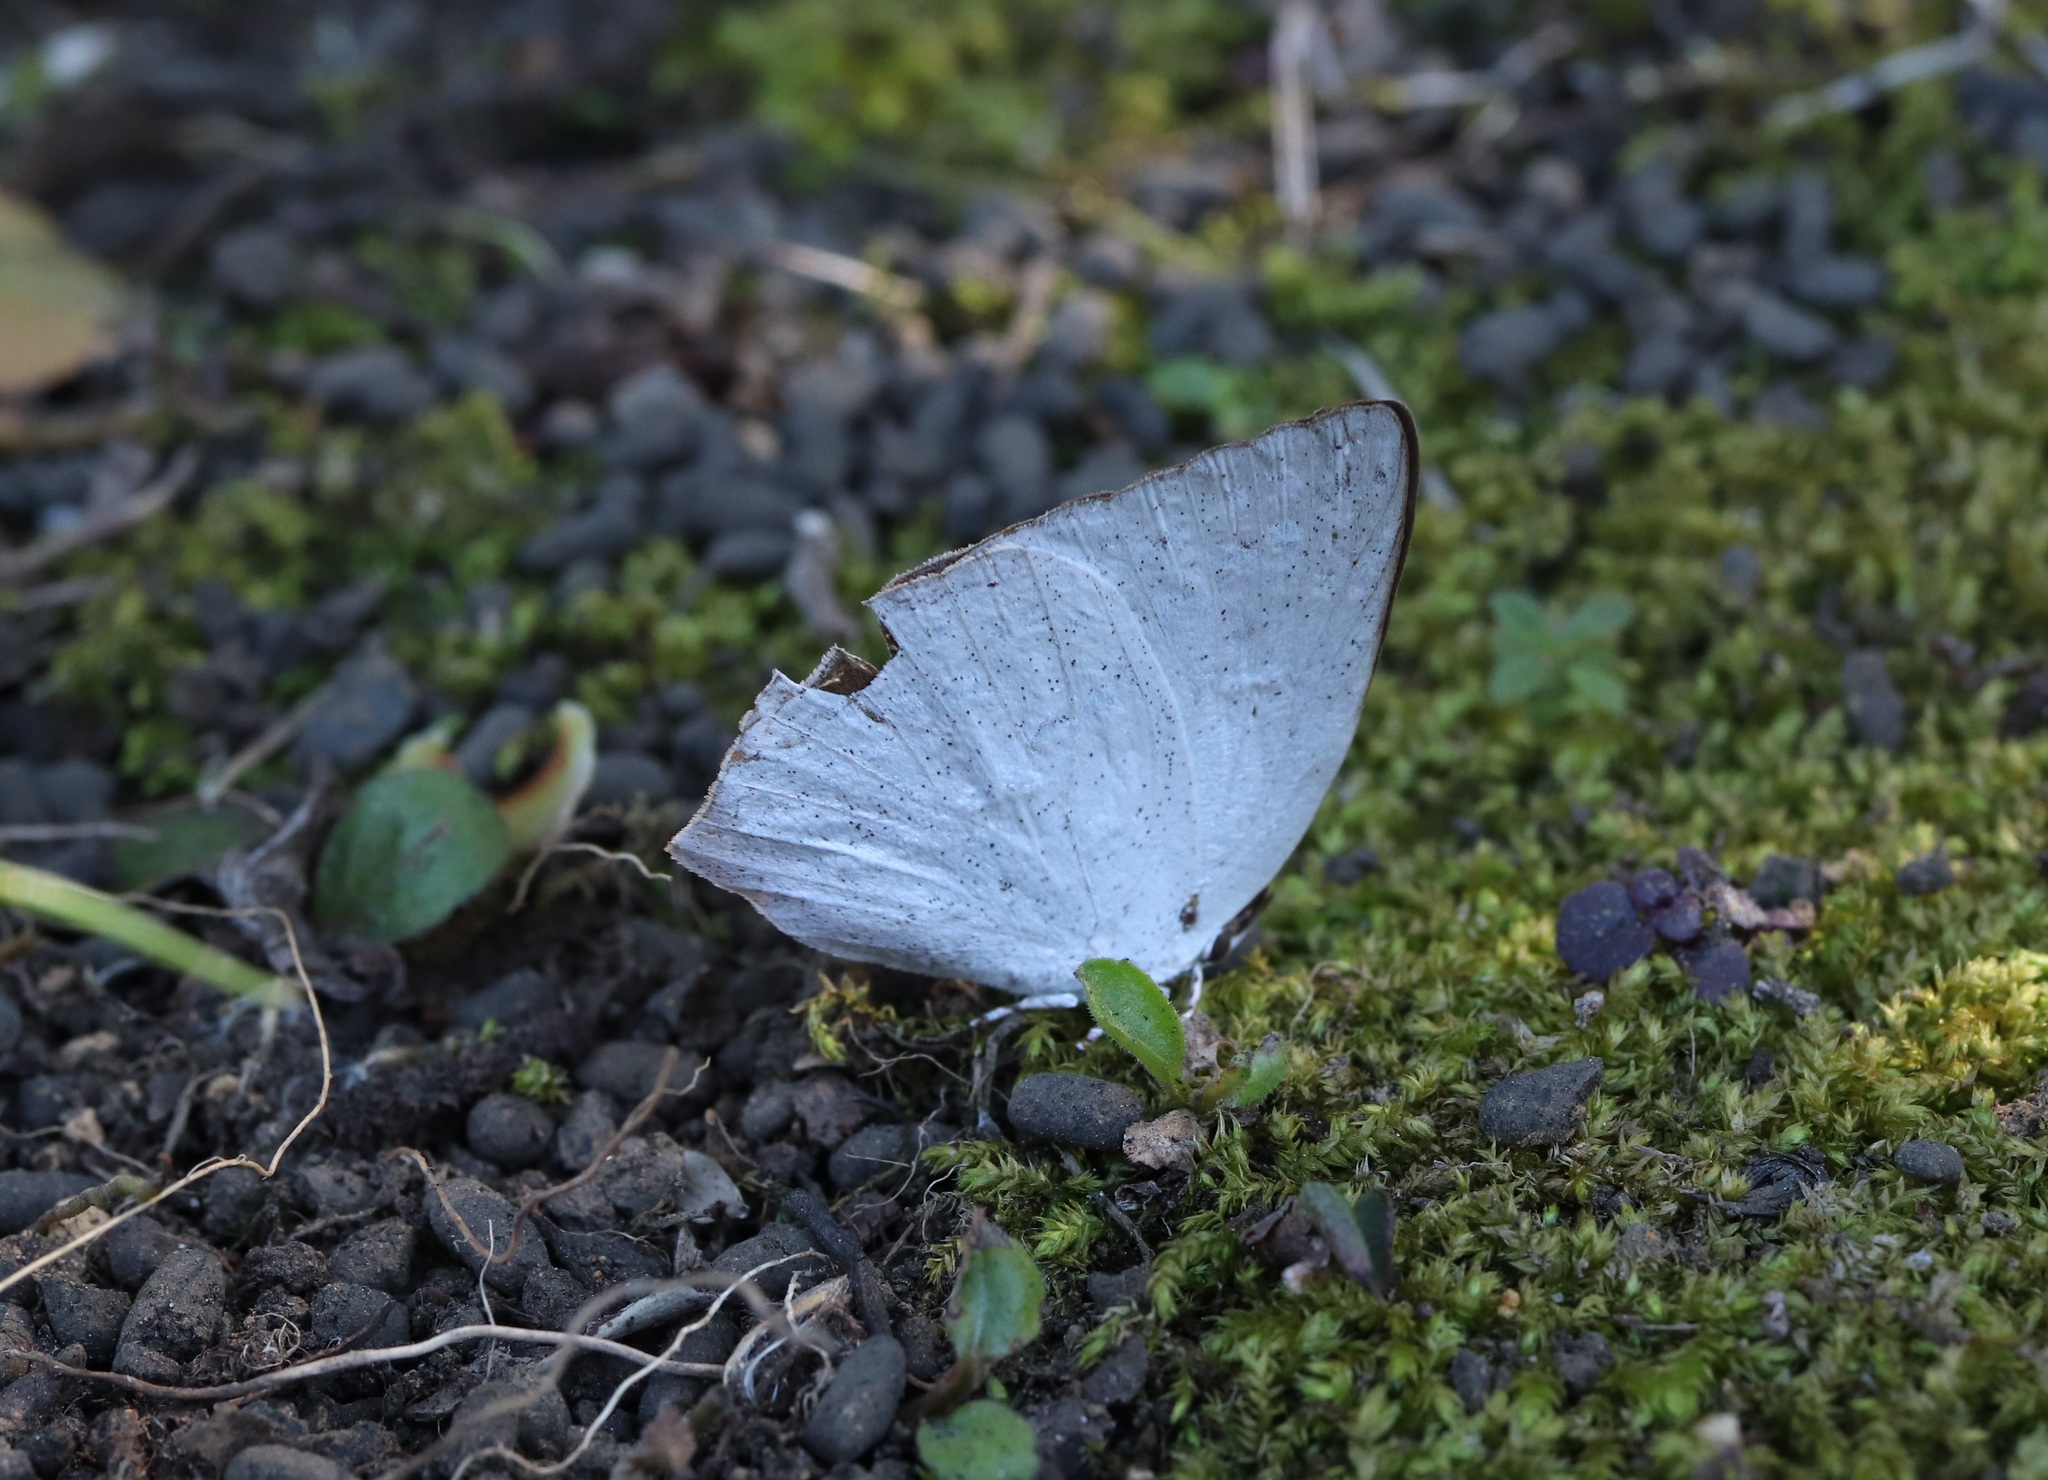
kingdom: Animalia
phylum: Arthropoda
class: Insecta
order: Lepidoptera
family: Lycaenidae
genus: Curetis
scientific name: Curetis acuta
